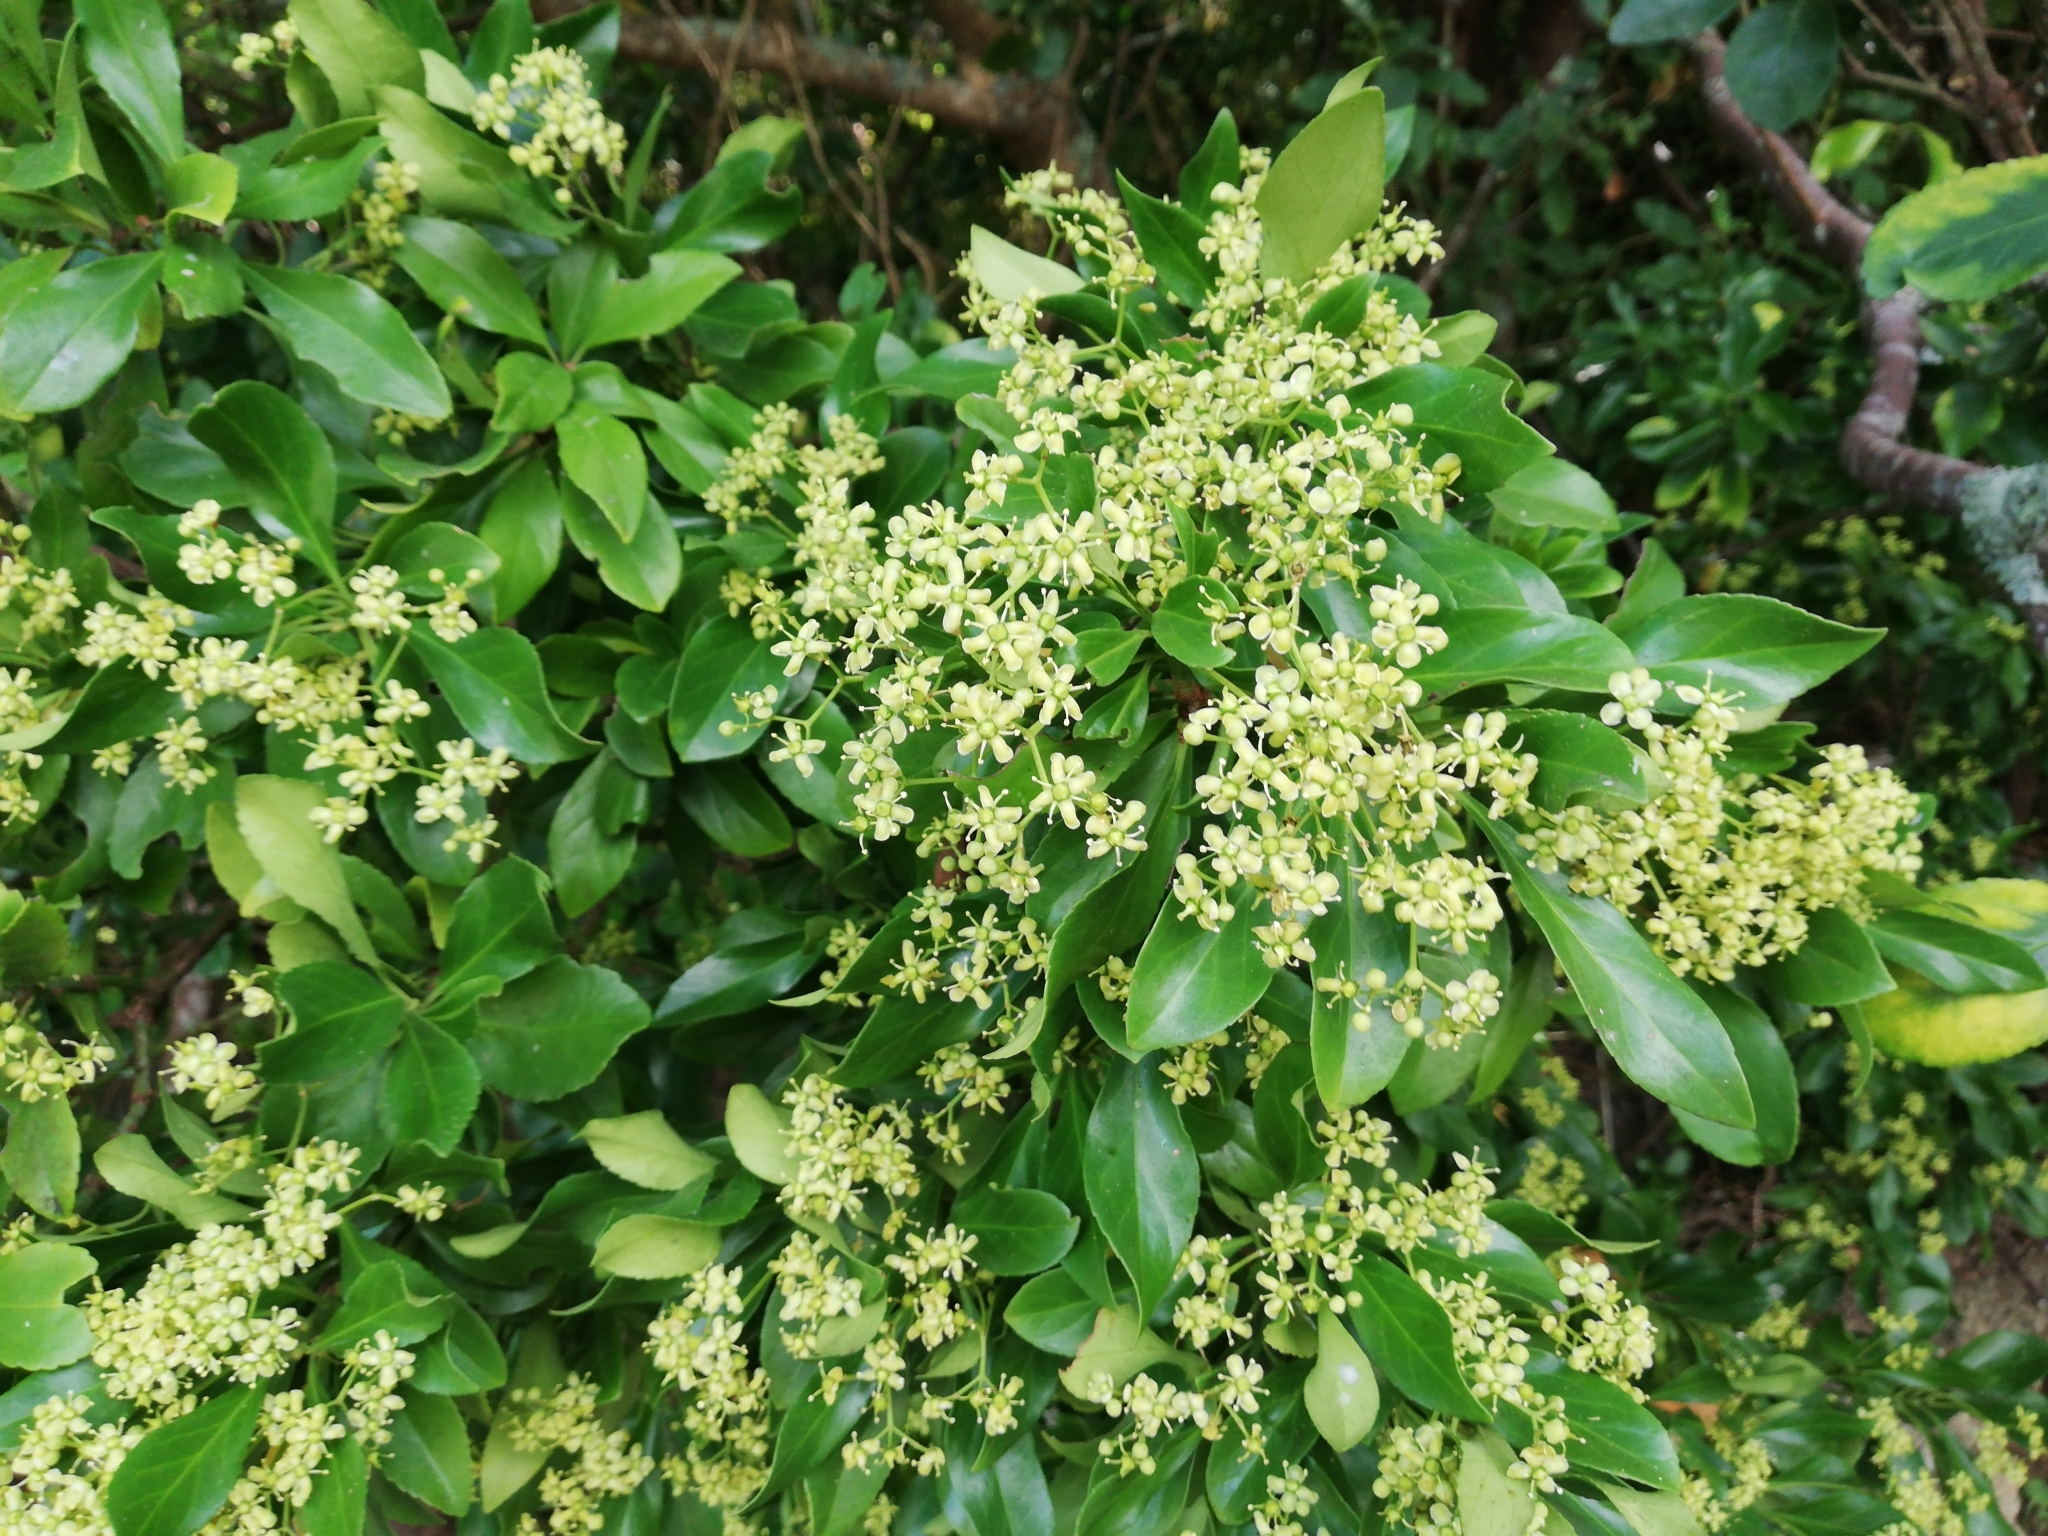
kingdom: Plantae
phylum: Tracheophyta
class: Magnoliopsida
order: Celastrales
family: Celastraceae
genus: Euonymus
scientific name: Euonymus japonicus
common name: Japanese spindletree
